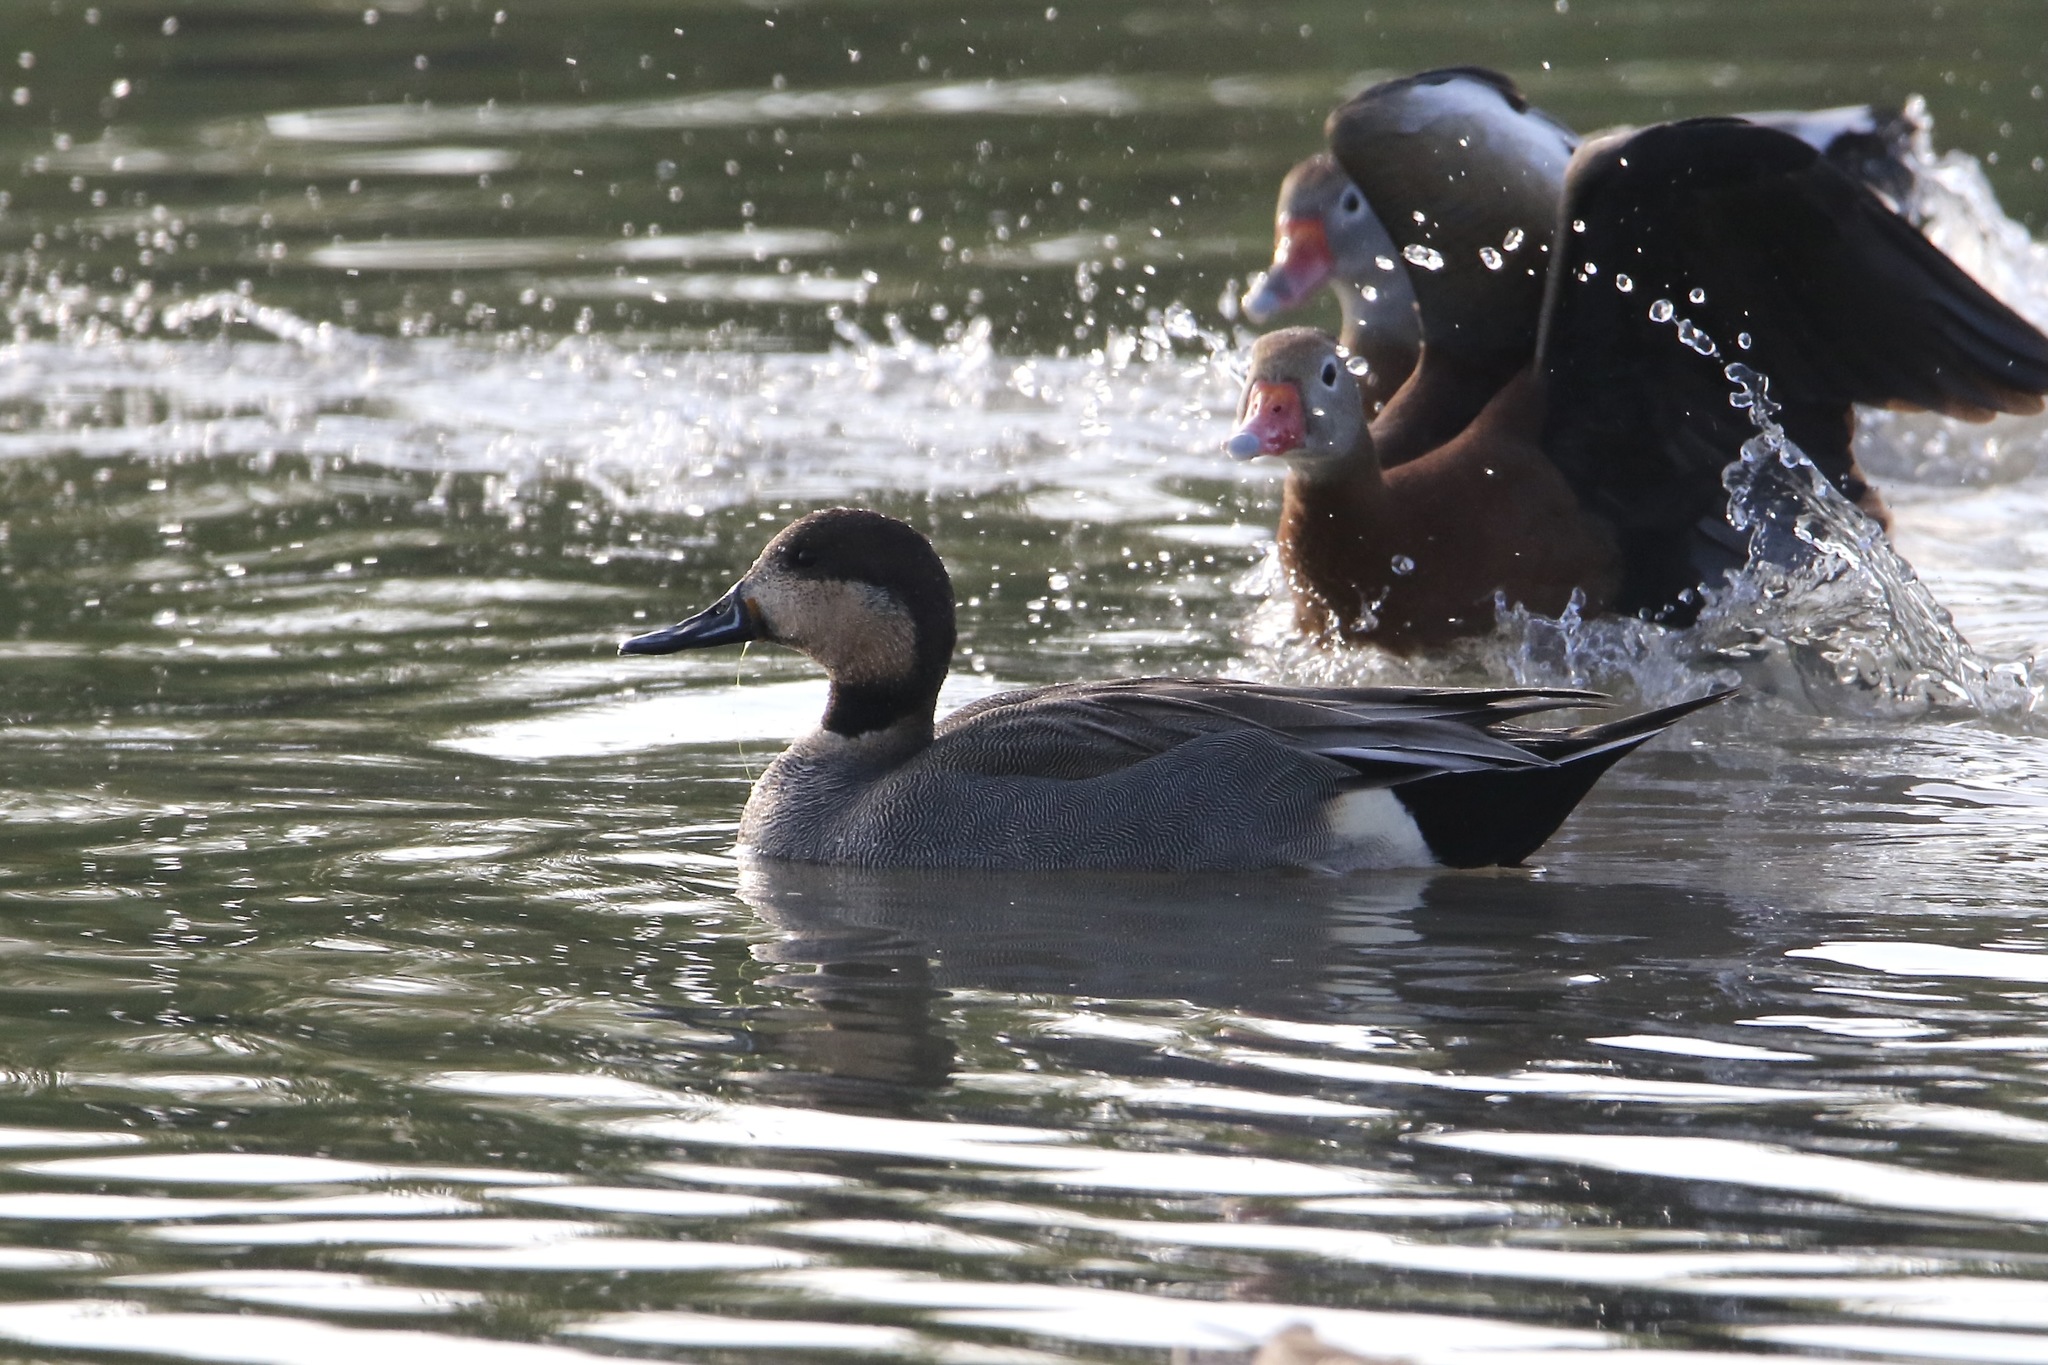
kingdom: Animalia
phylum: Chordata
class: Aves
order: Anseriformes
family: Anatidae
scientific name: Anatidae
